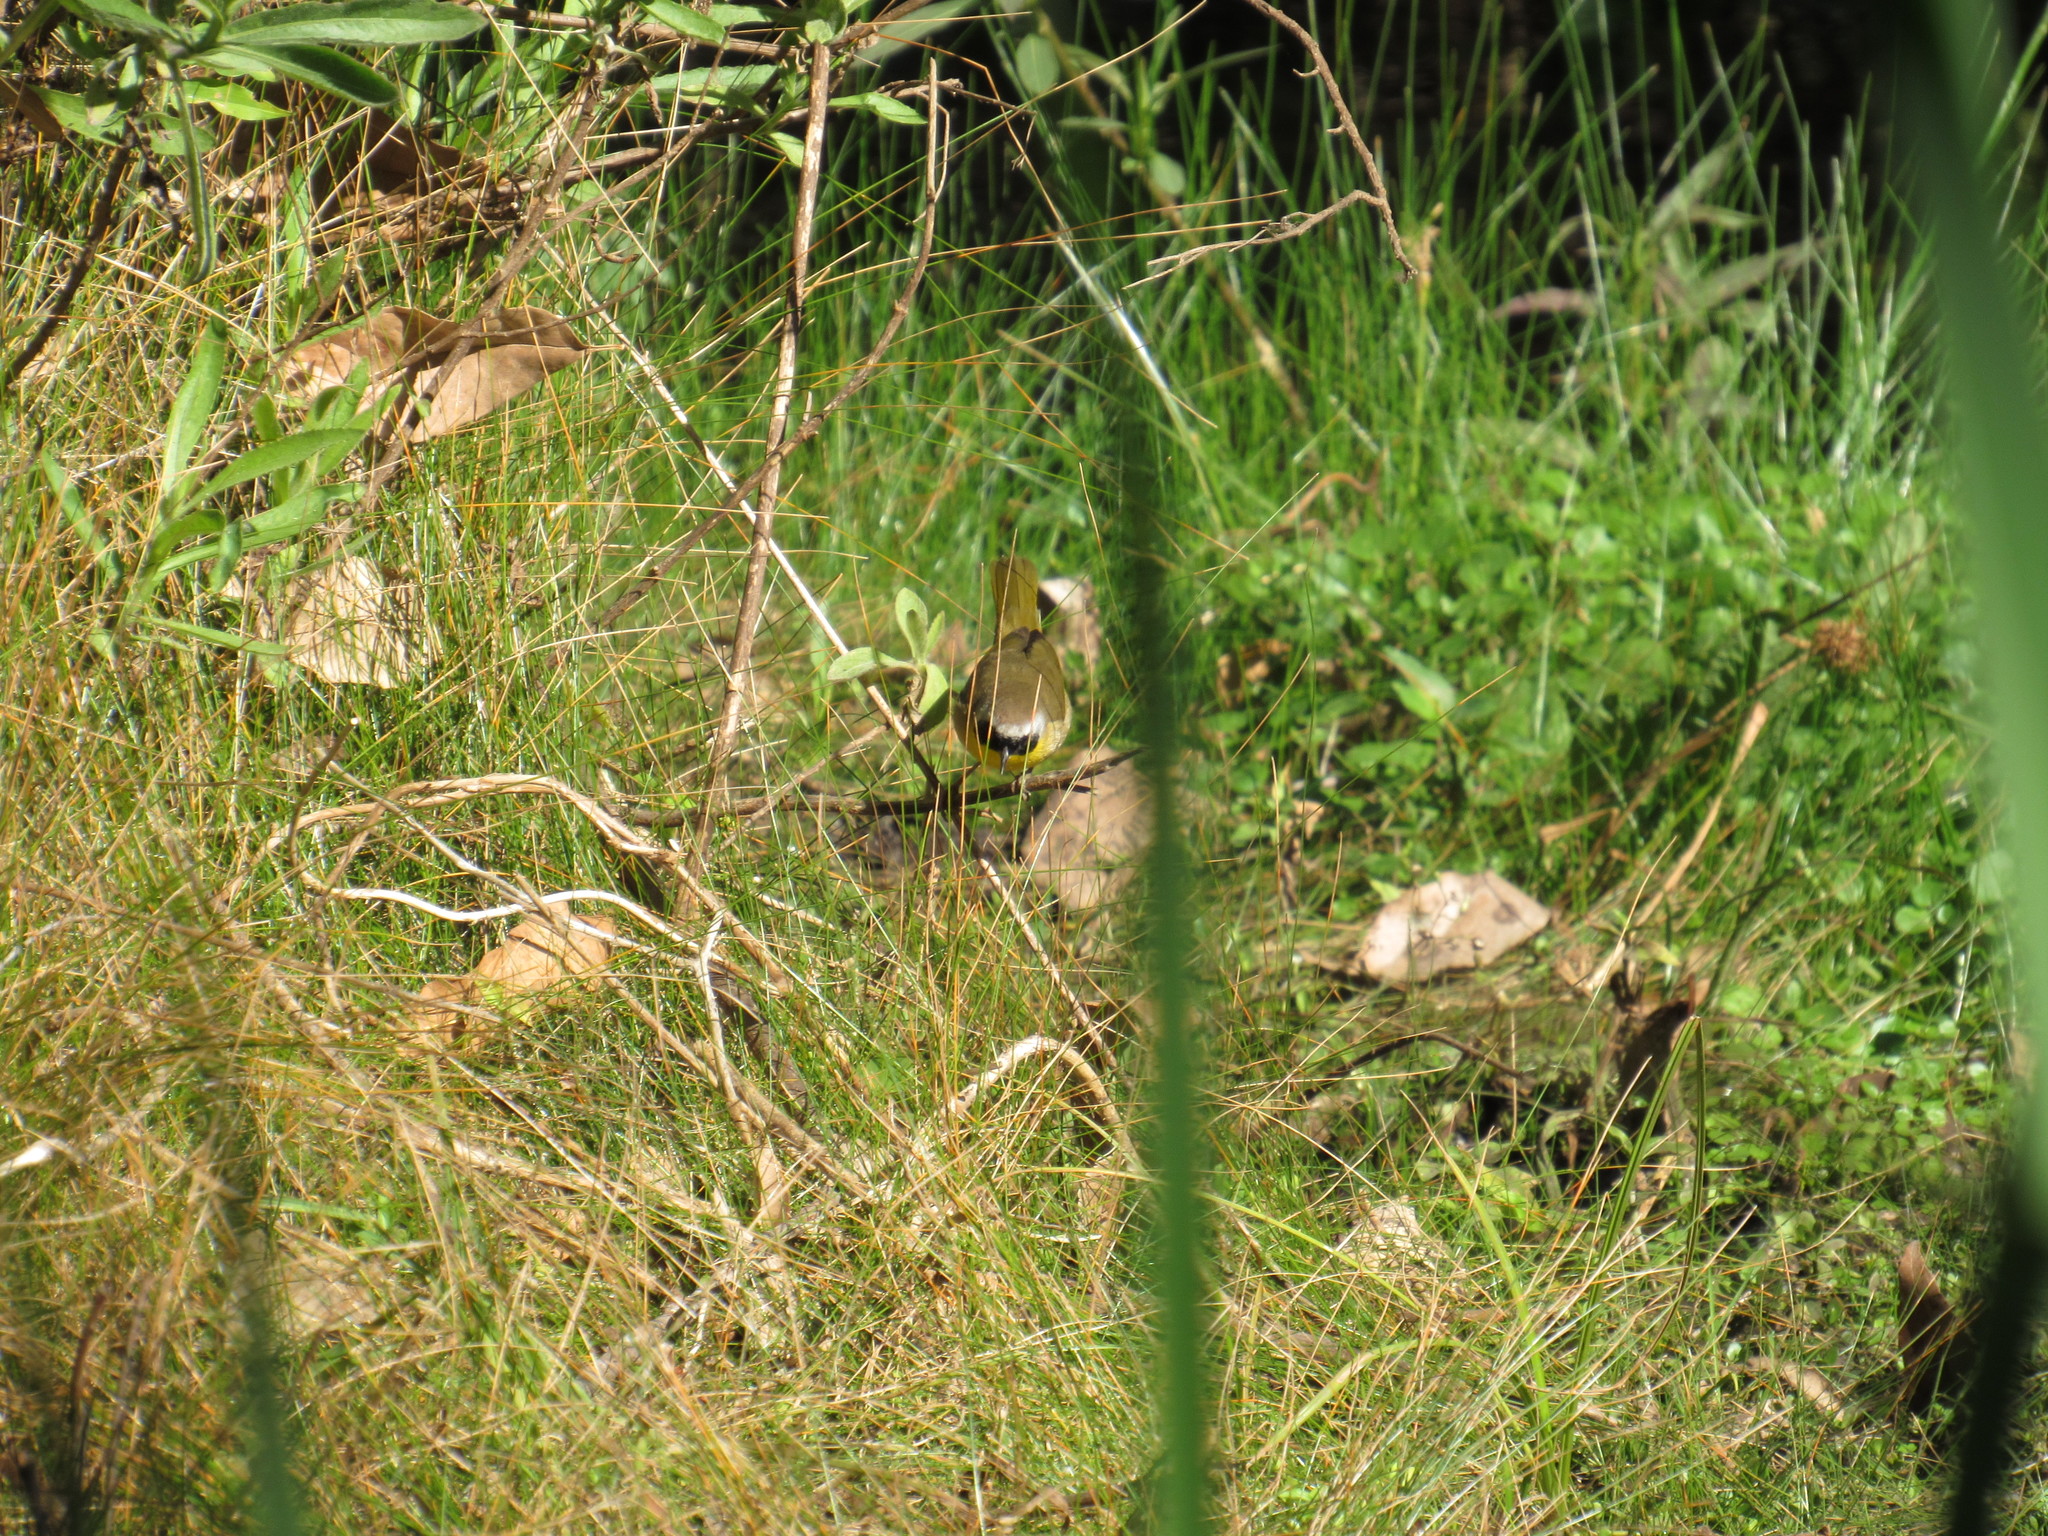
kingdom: Animalia
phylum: Chordata
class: Aves
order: Passeriformes
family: Parulidae
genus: Geothlypis
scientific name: Geothlypis trichas
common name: Common yellowthroat
